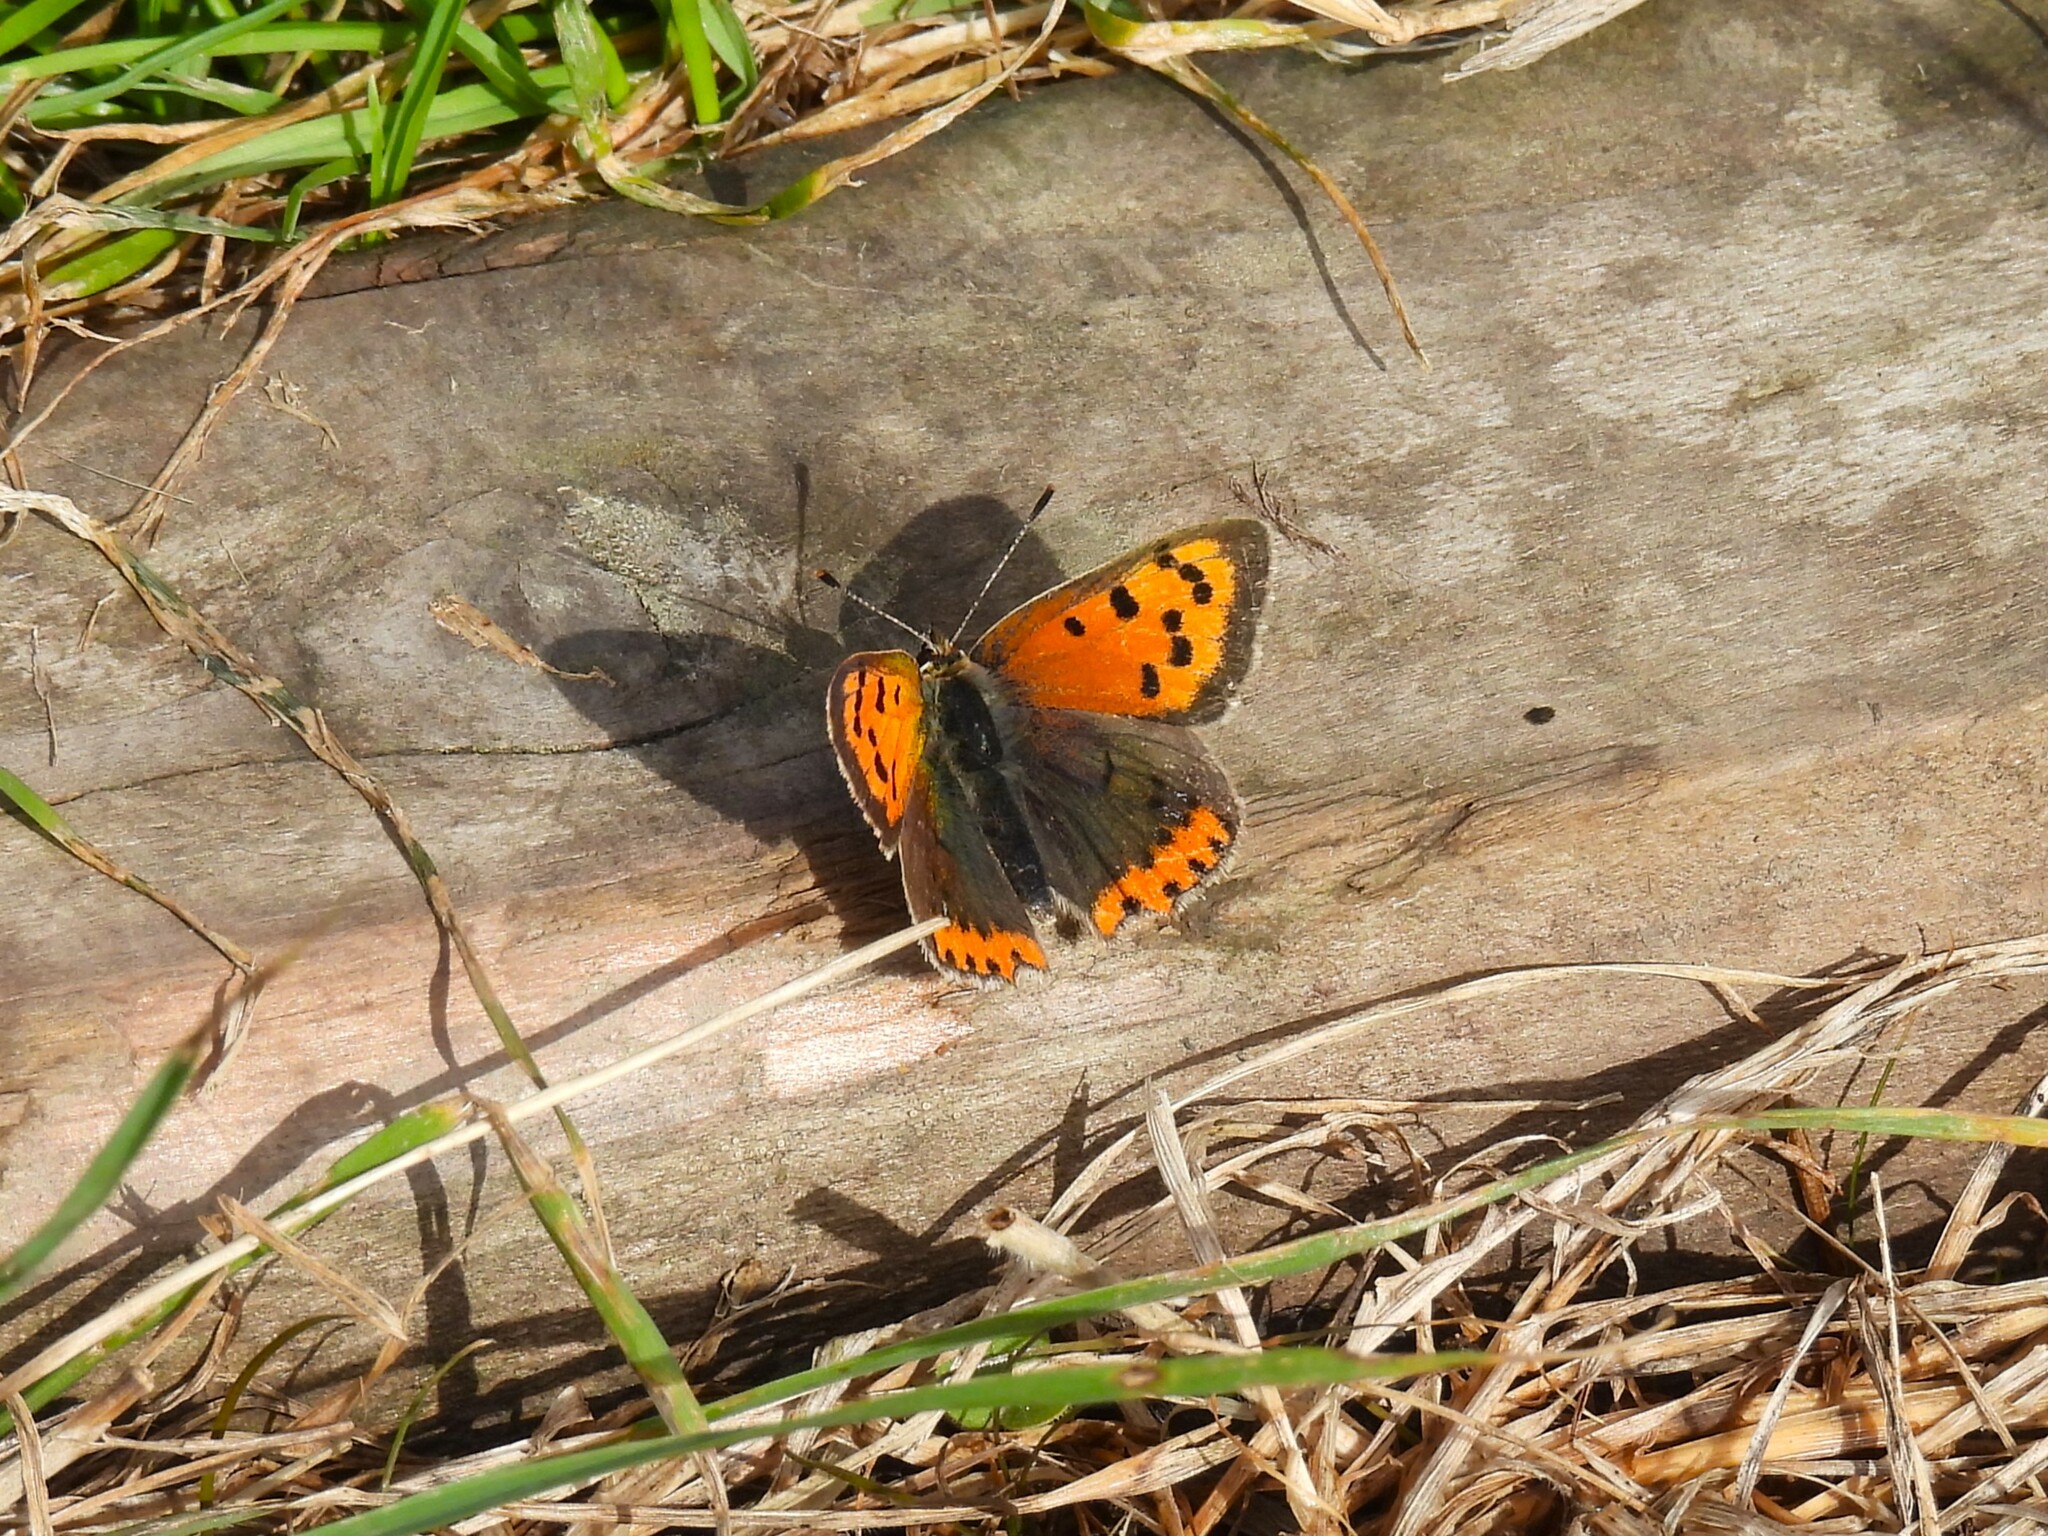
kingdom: Animalia
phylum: Arthropoda
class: Insecta
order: Lepidoptera
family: Lycaenidae
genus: Lycaena
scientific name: Lycaena phlaeas
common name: Small copper
